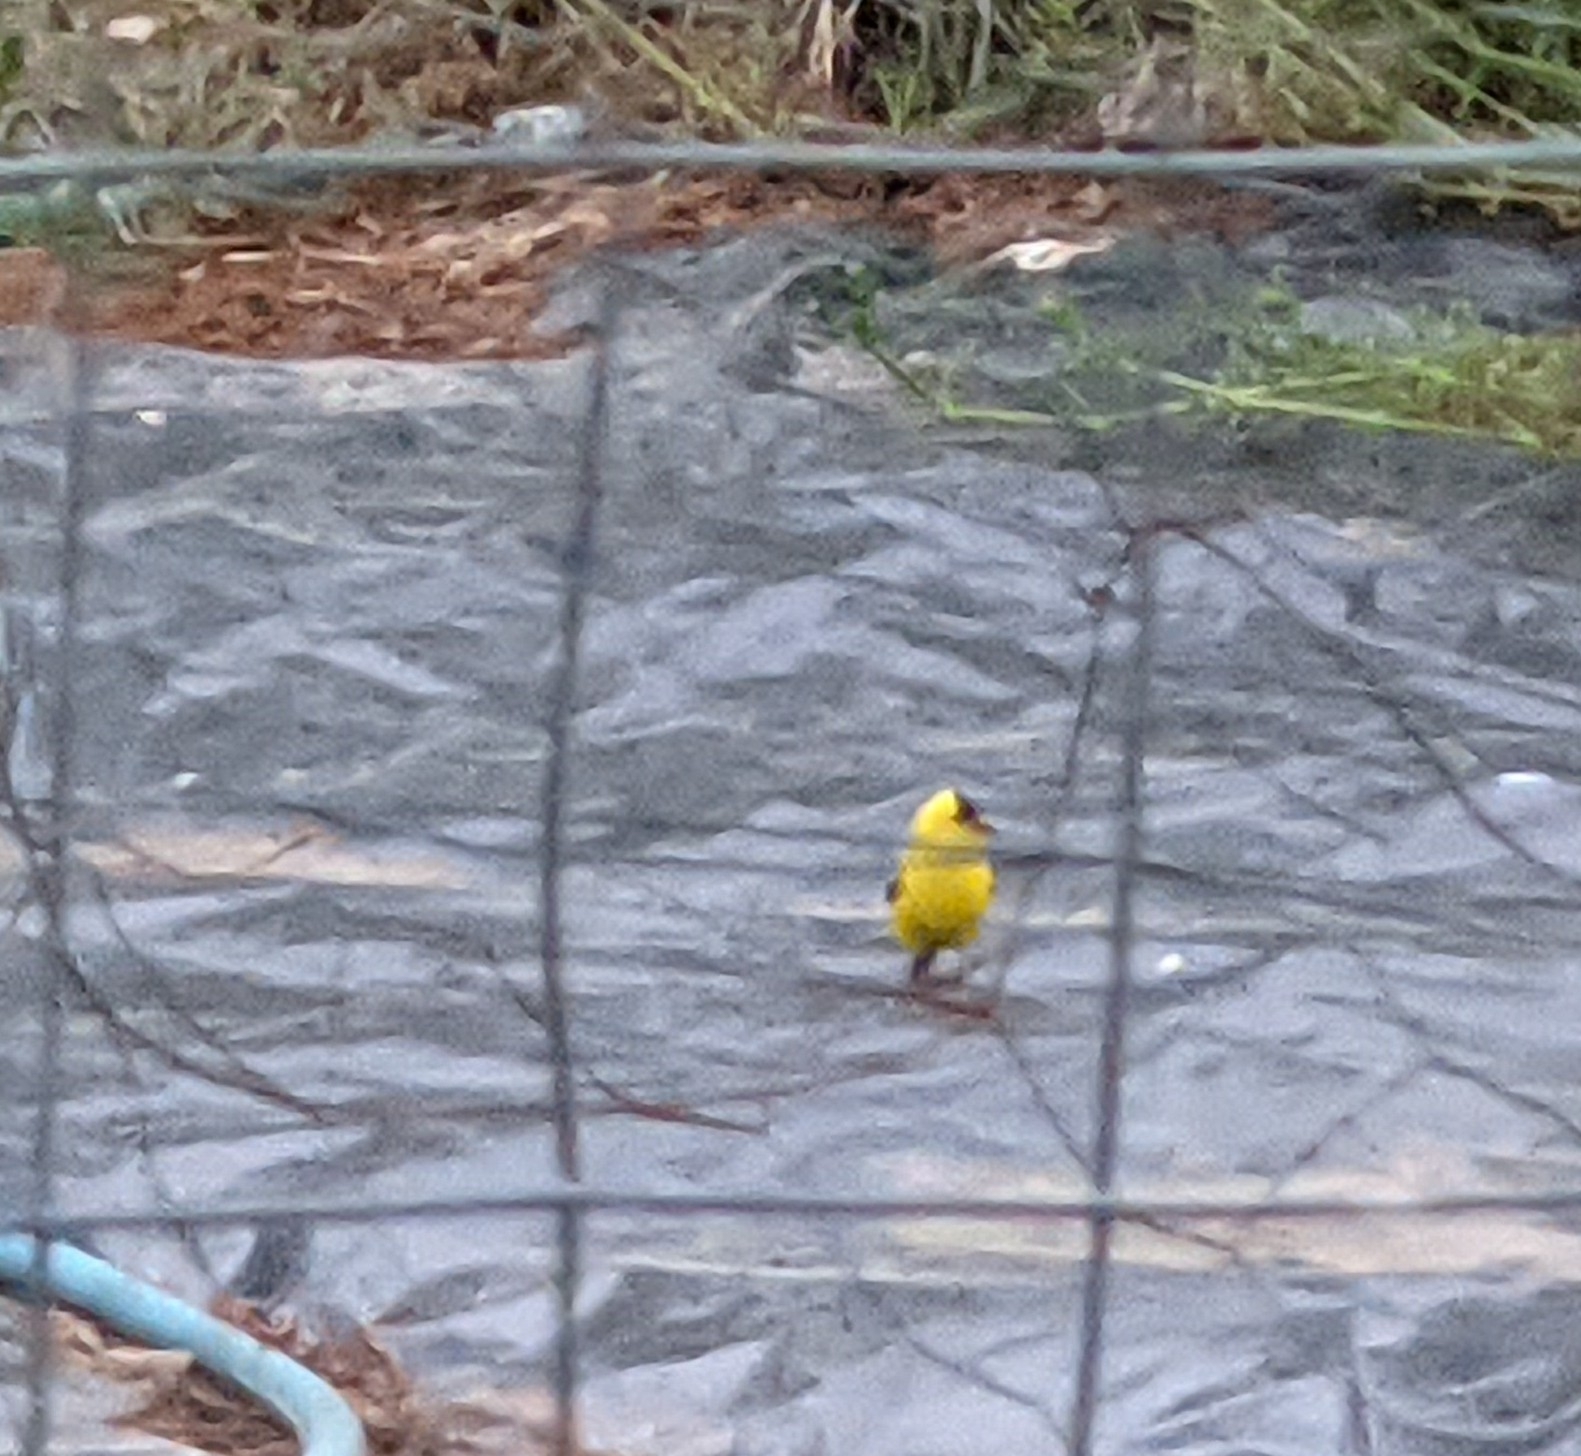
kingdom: Animalia
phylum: Chordata
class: Aves
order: Passeriformes
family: Fringillidae
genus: Spinus
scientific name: Spinus tristis
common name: American goldfinch
